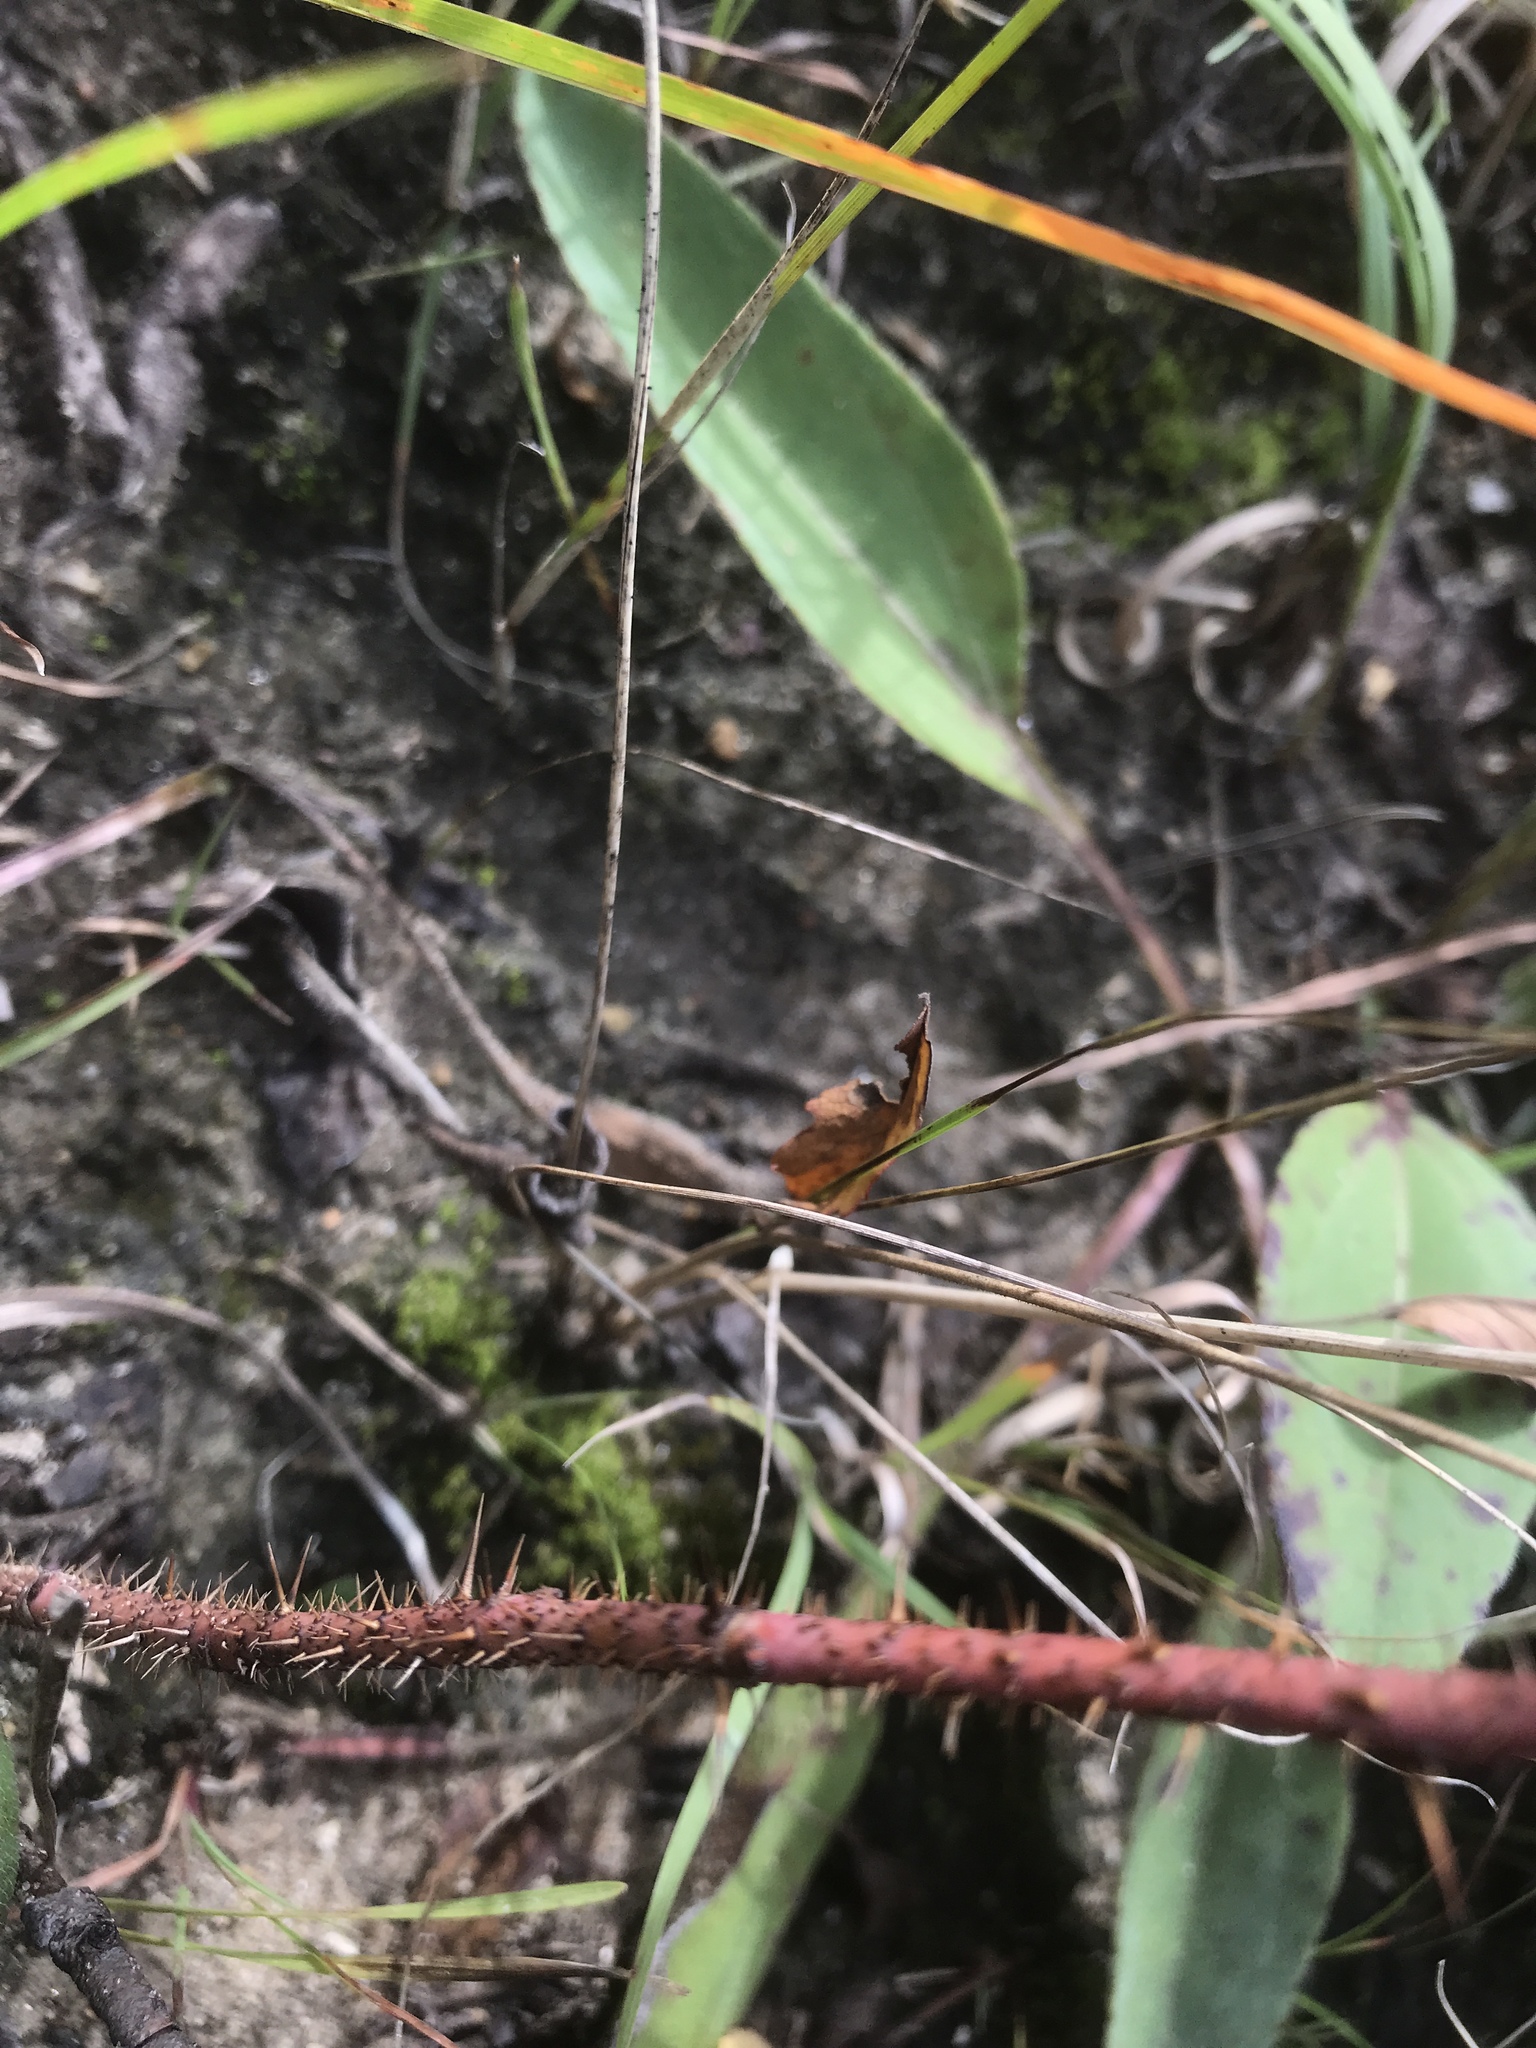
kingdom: Plantae
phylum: Tracheophyta
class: Magnoliopsida
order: Rosales
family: Rosaceae
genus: Rosa
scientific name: Rosa arkansana
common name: Prairie rose
